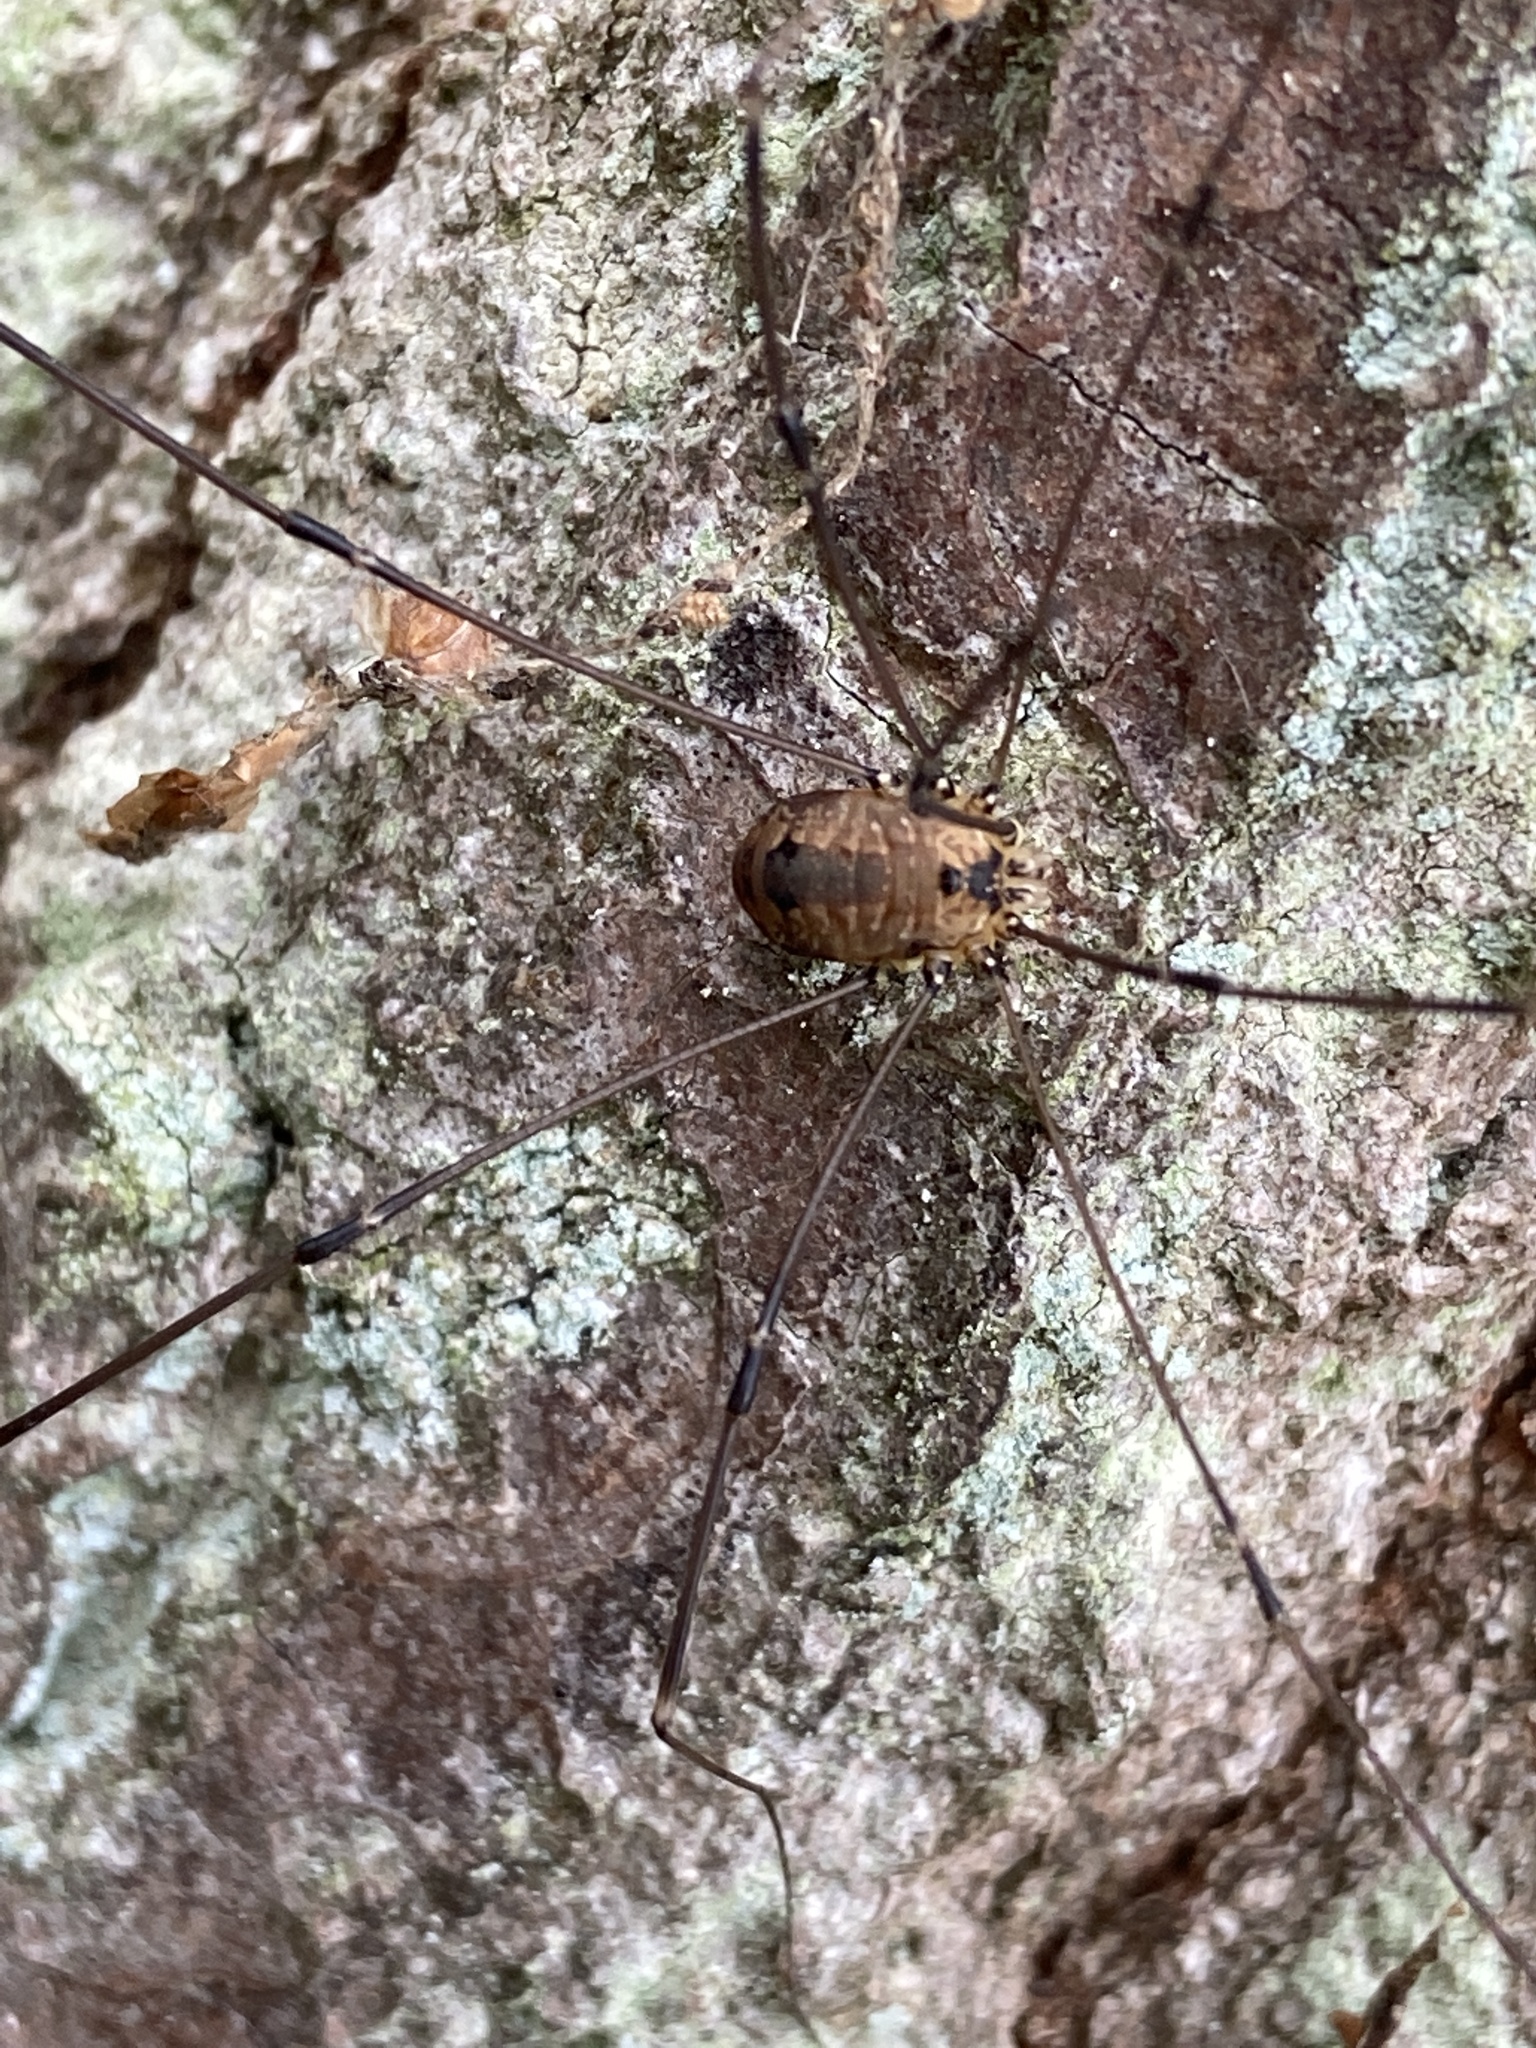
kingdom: Animalia
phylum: Arthropoda
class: Arachnida
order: Opiliones
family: Sclerosomatidae
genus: Leiobunum
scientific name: Leiobunum rotundum
